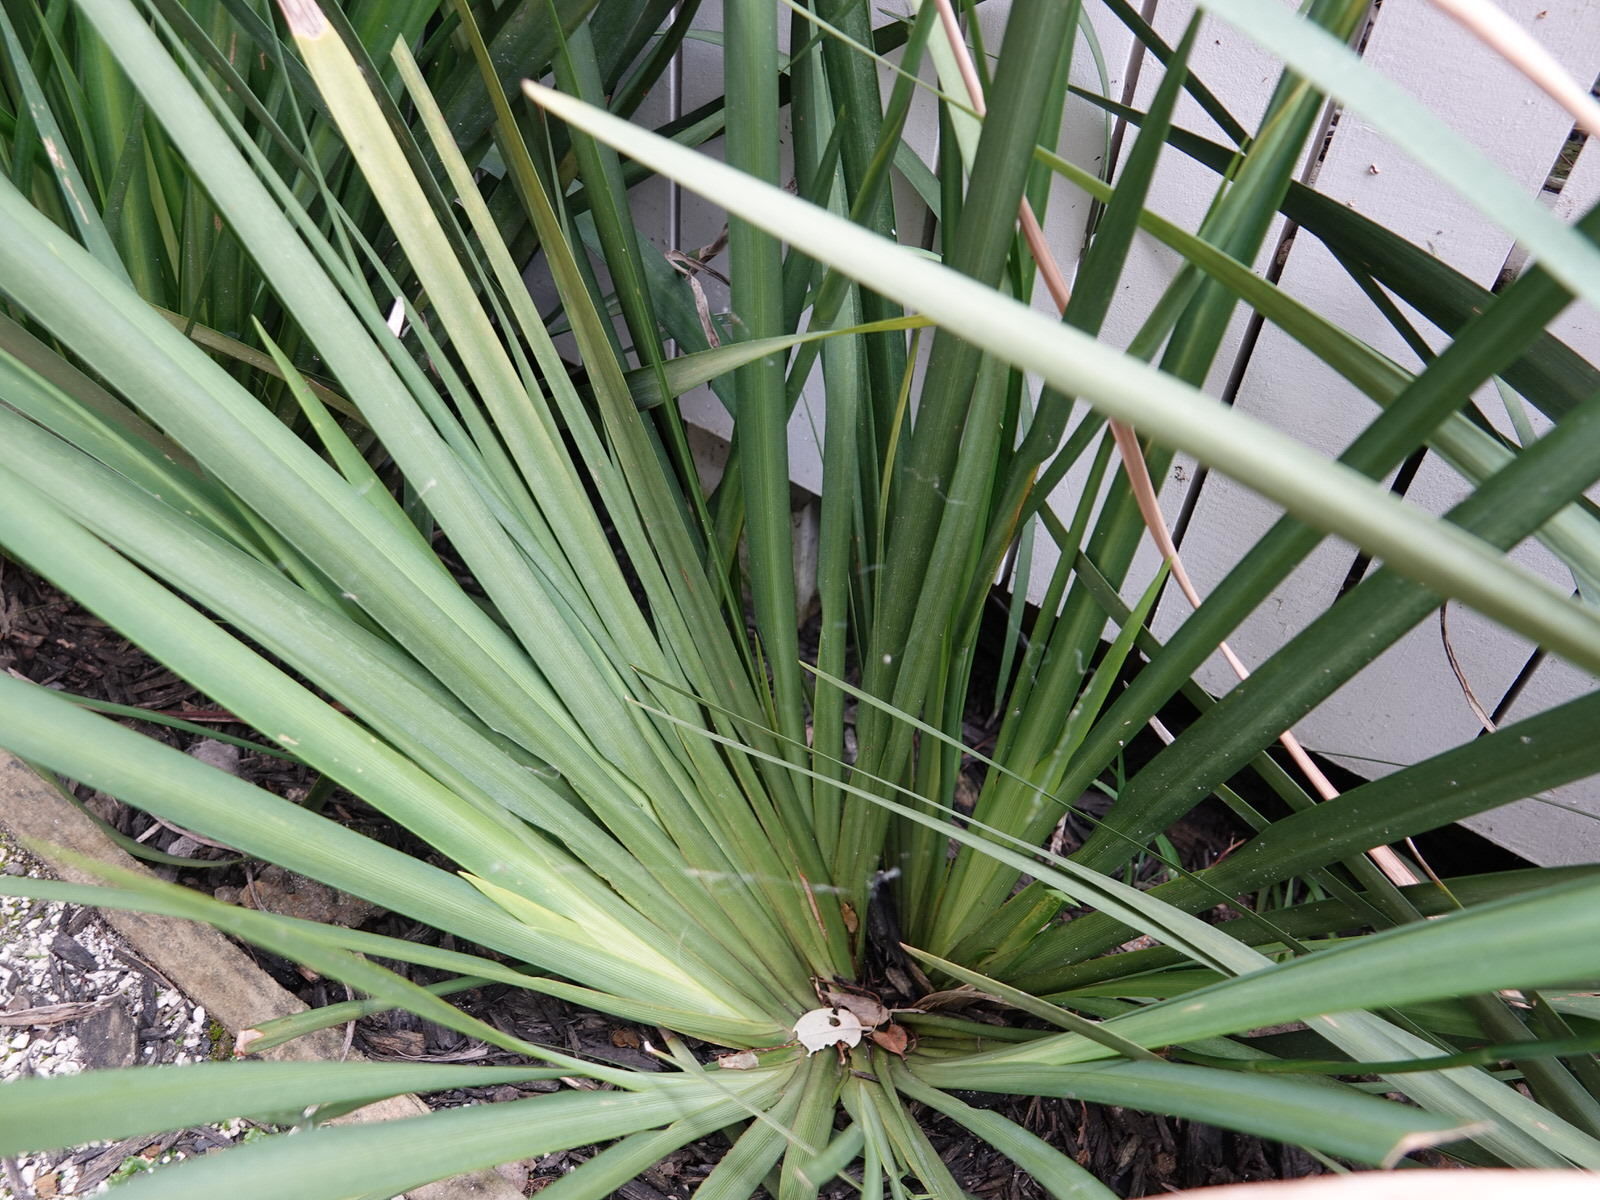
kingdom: Animalia
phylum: Arthropoda
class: Arachnida
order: Araneae
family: Tetragnathidae
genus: Leucauge
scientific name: Leucauge dromedaria
